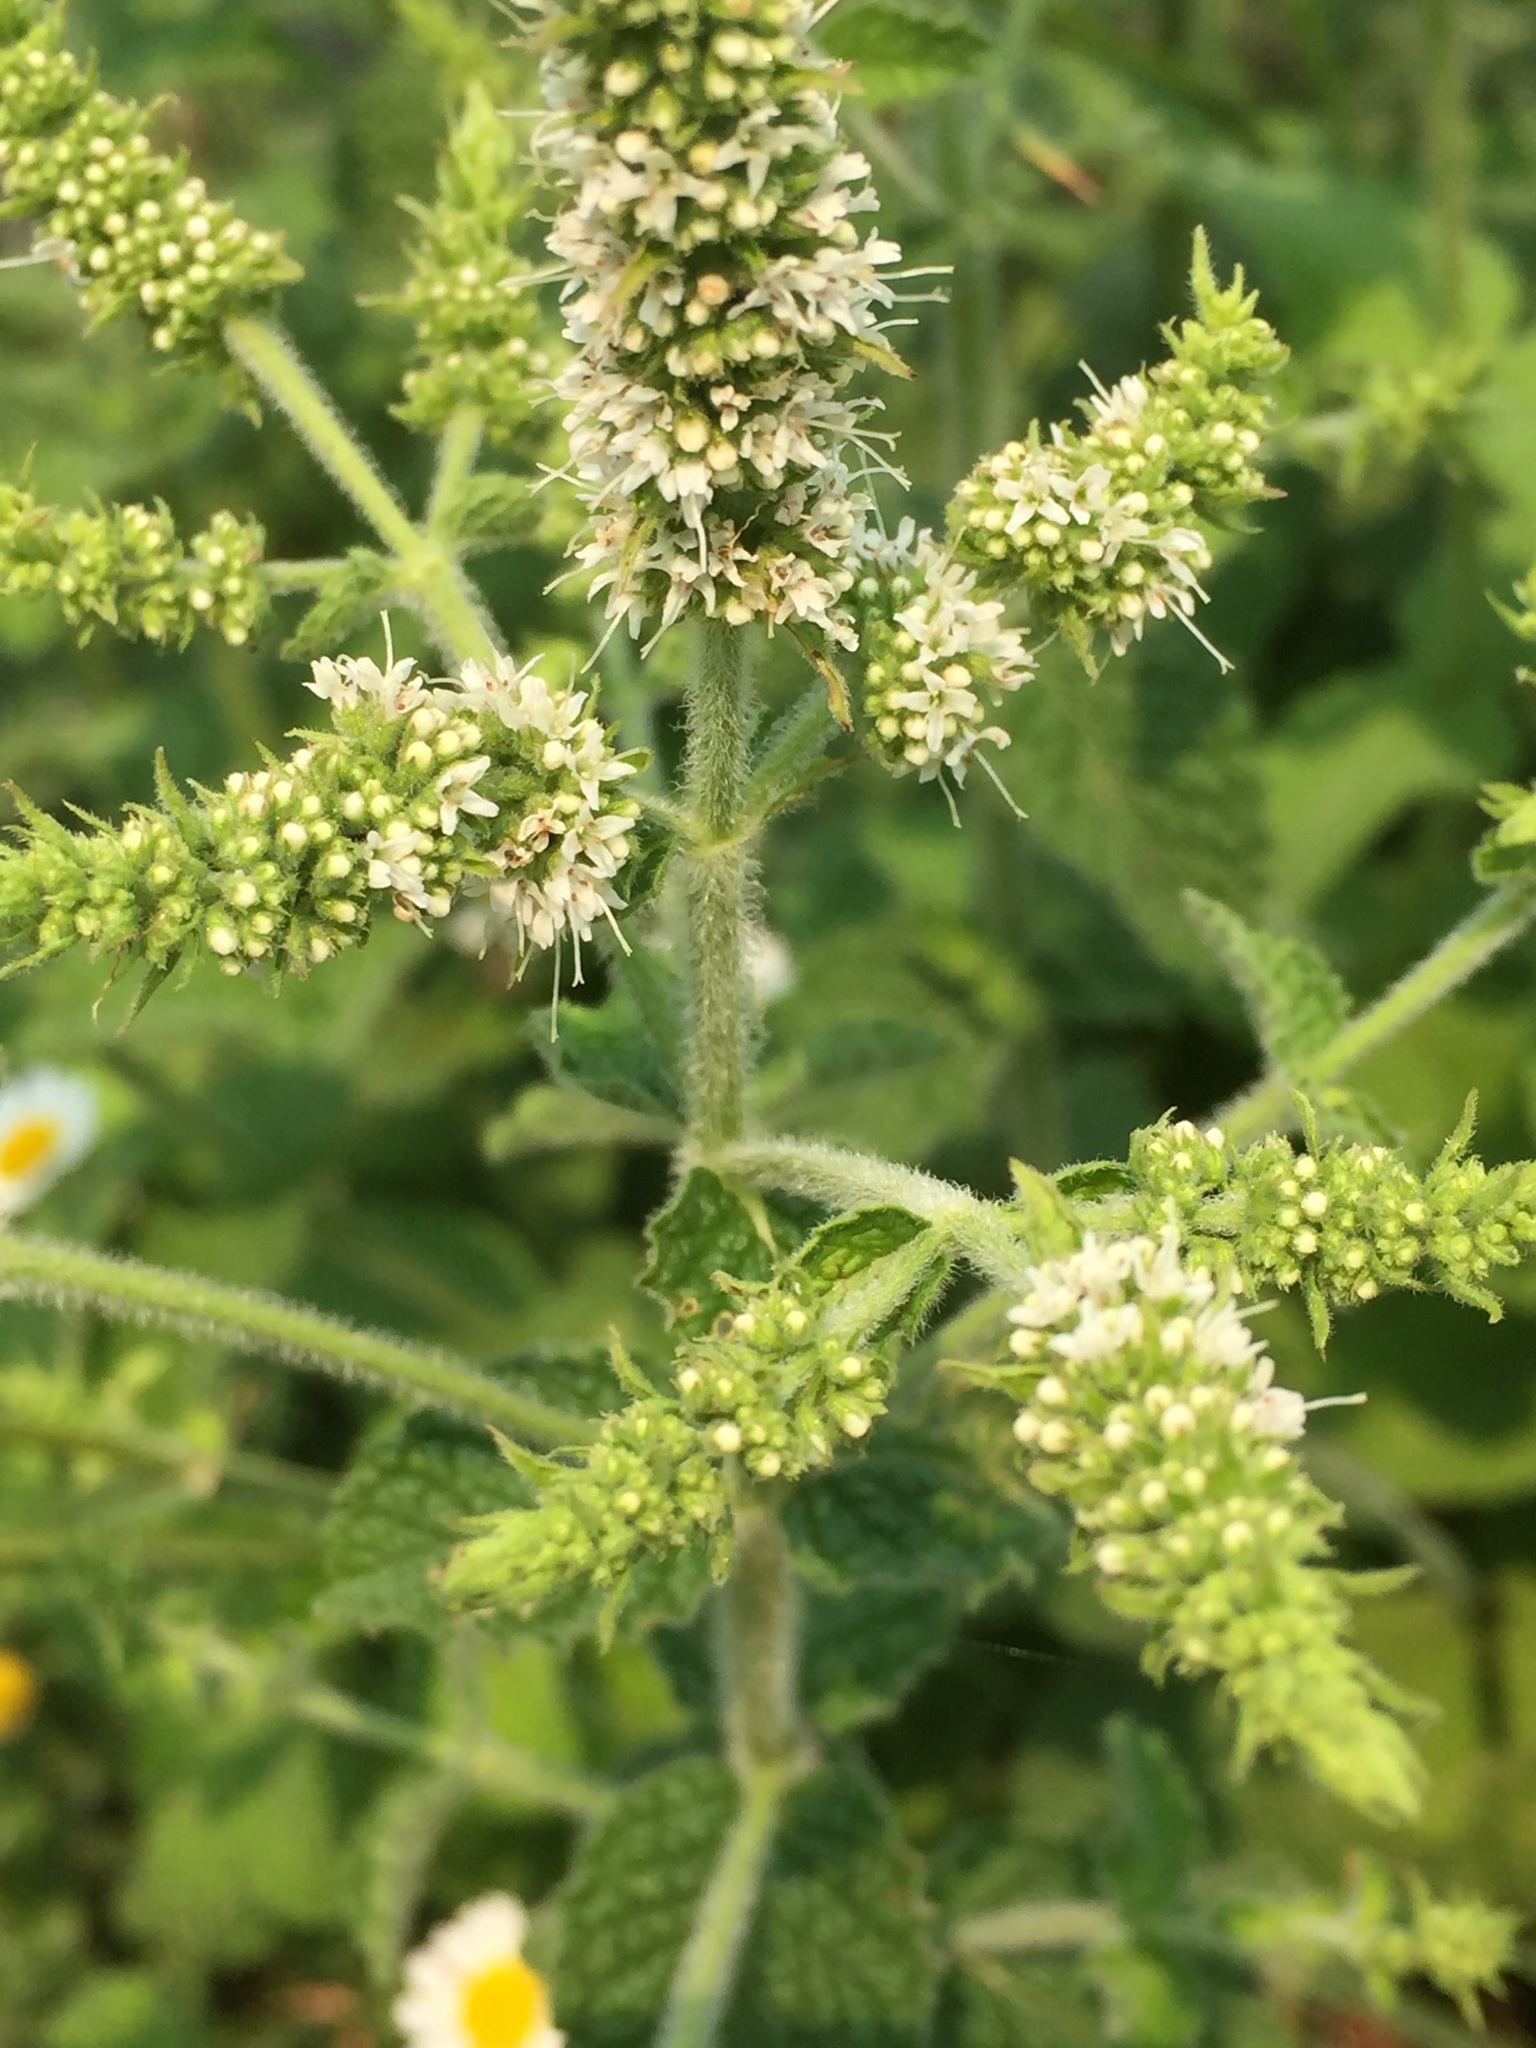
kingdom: Plantae
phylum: Tracheophyta
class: Magnoliopsida
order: Lamiales
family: Lamiaceae
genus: Mentha
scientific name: Mentha suaveolens
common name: Apple mint
